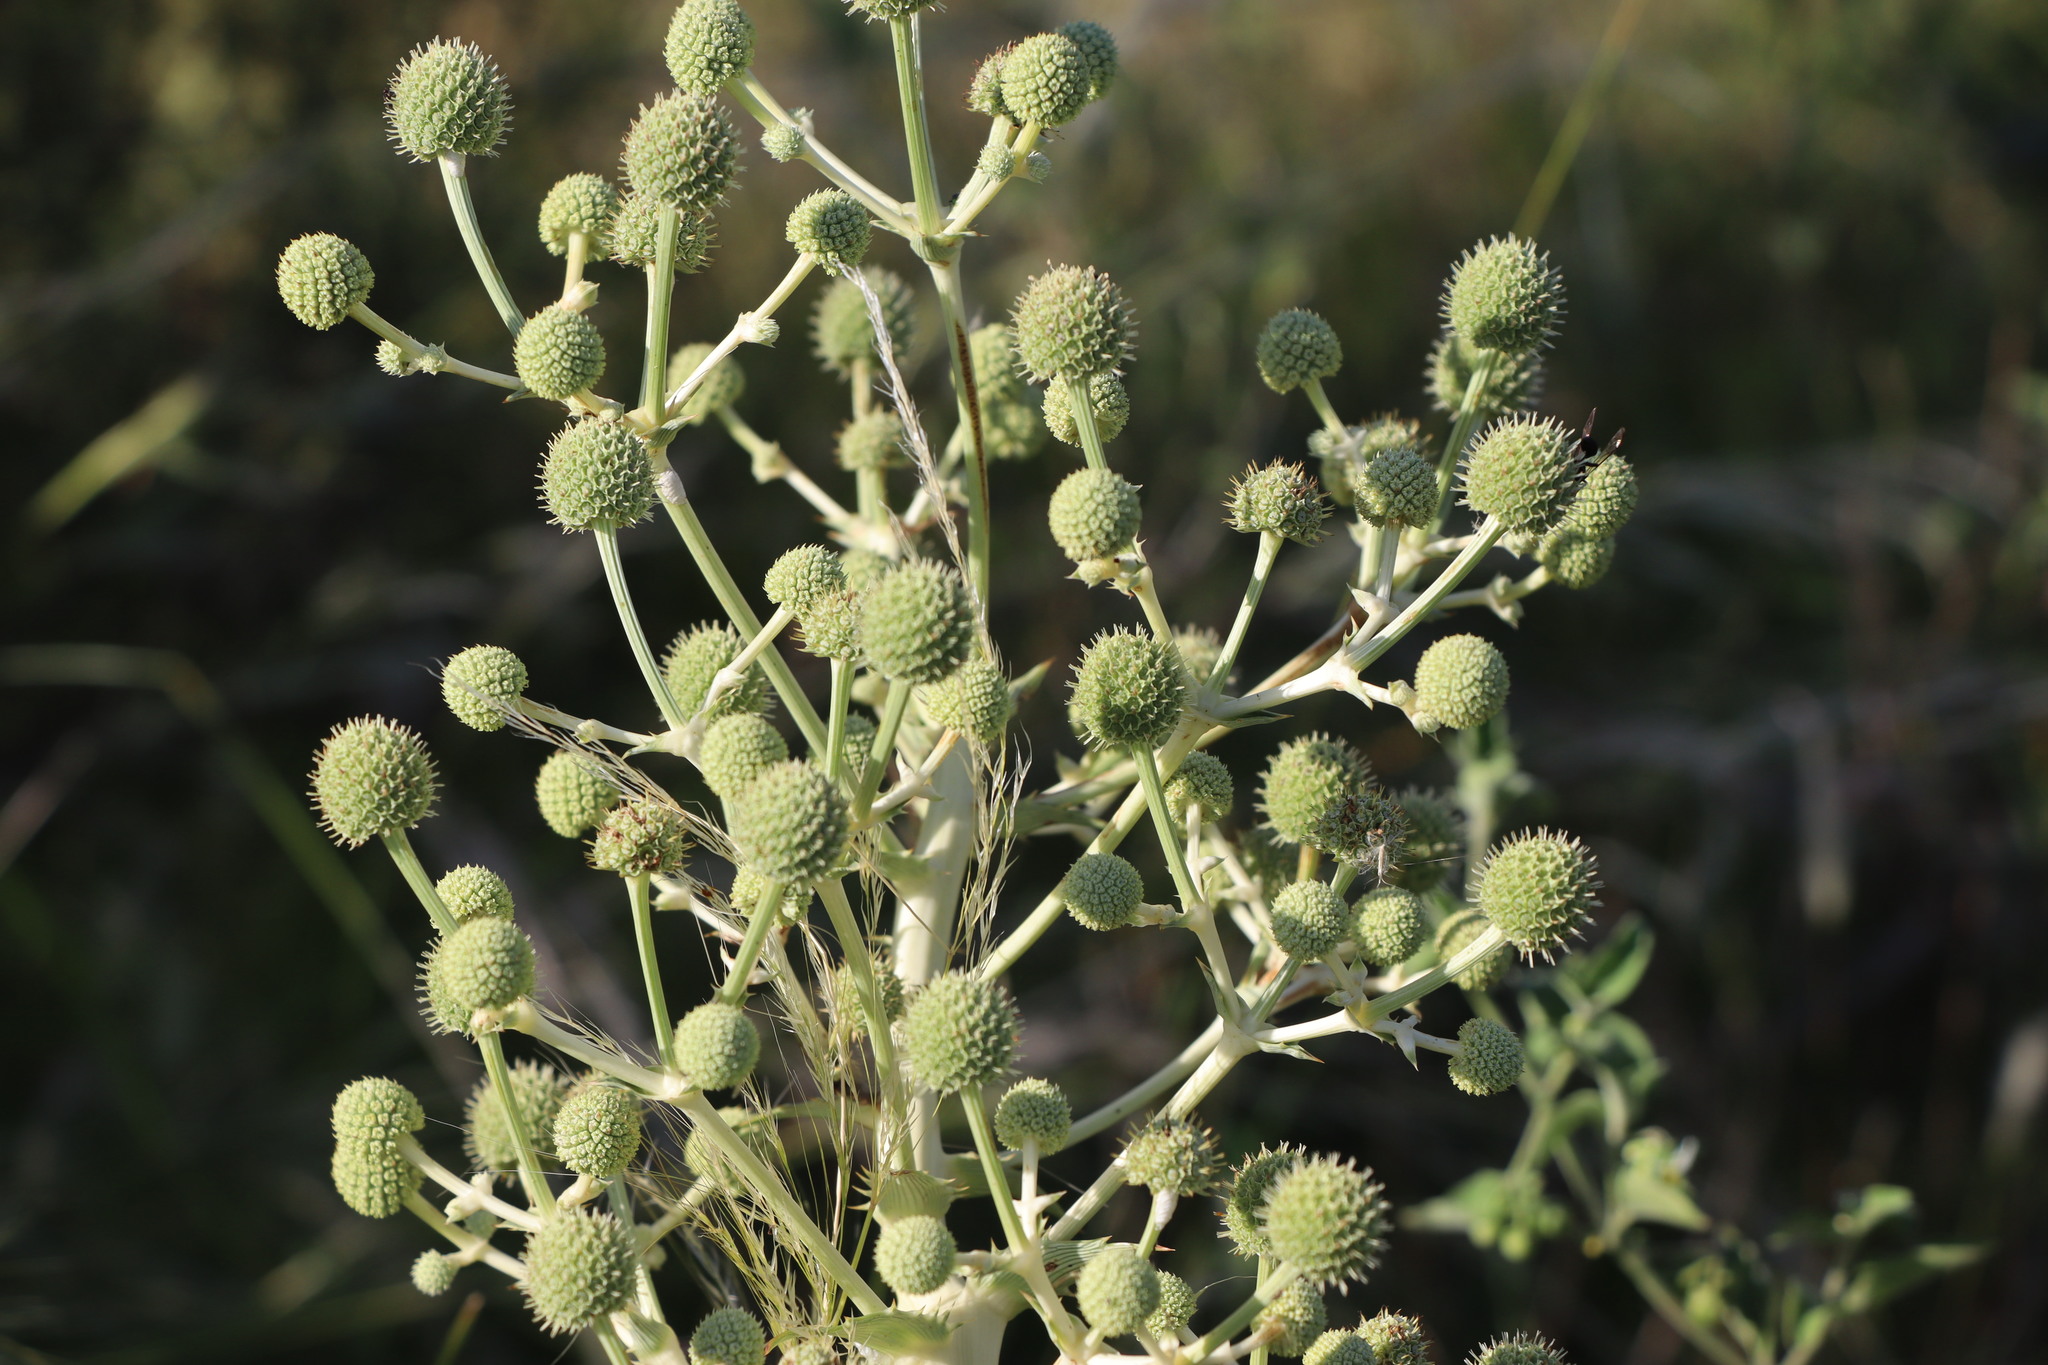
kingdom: Plantae
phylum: Tracheophyta
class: Magnoliopsida
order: Apiales
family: Apiaceae
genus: Eryngium
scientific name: Eryngium horridum
